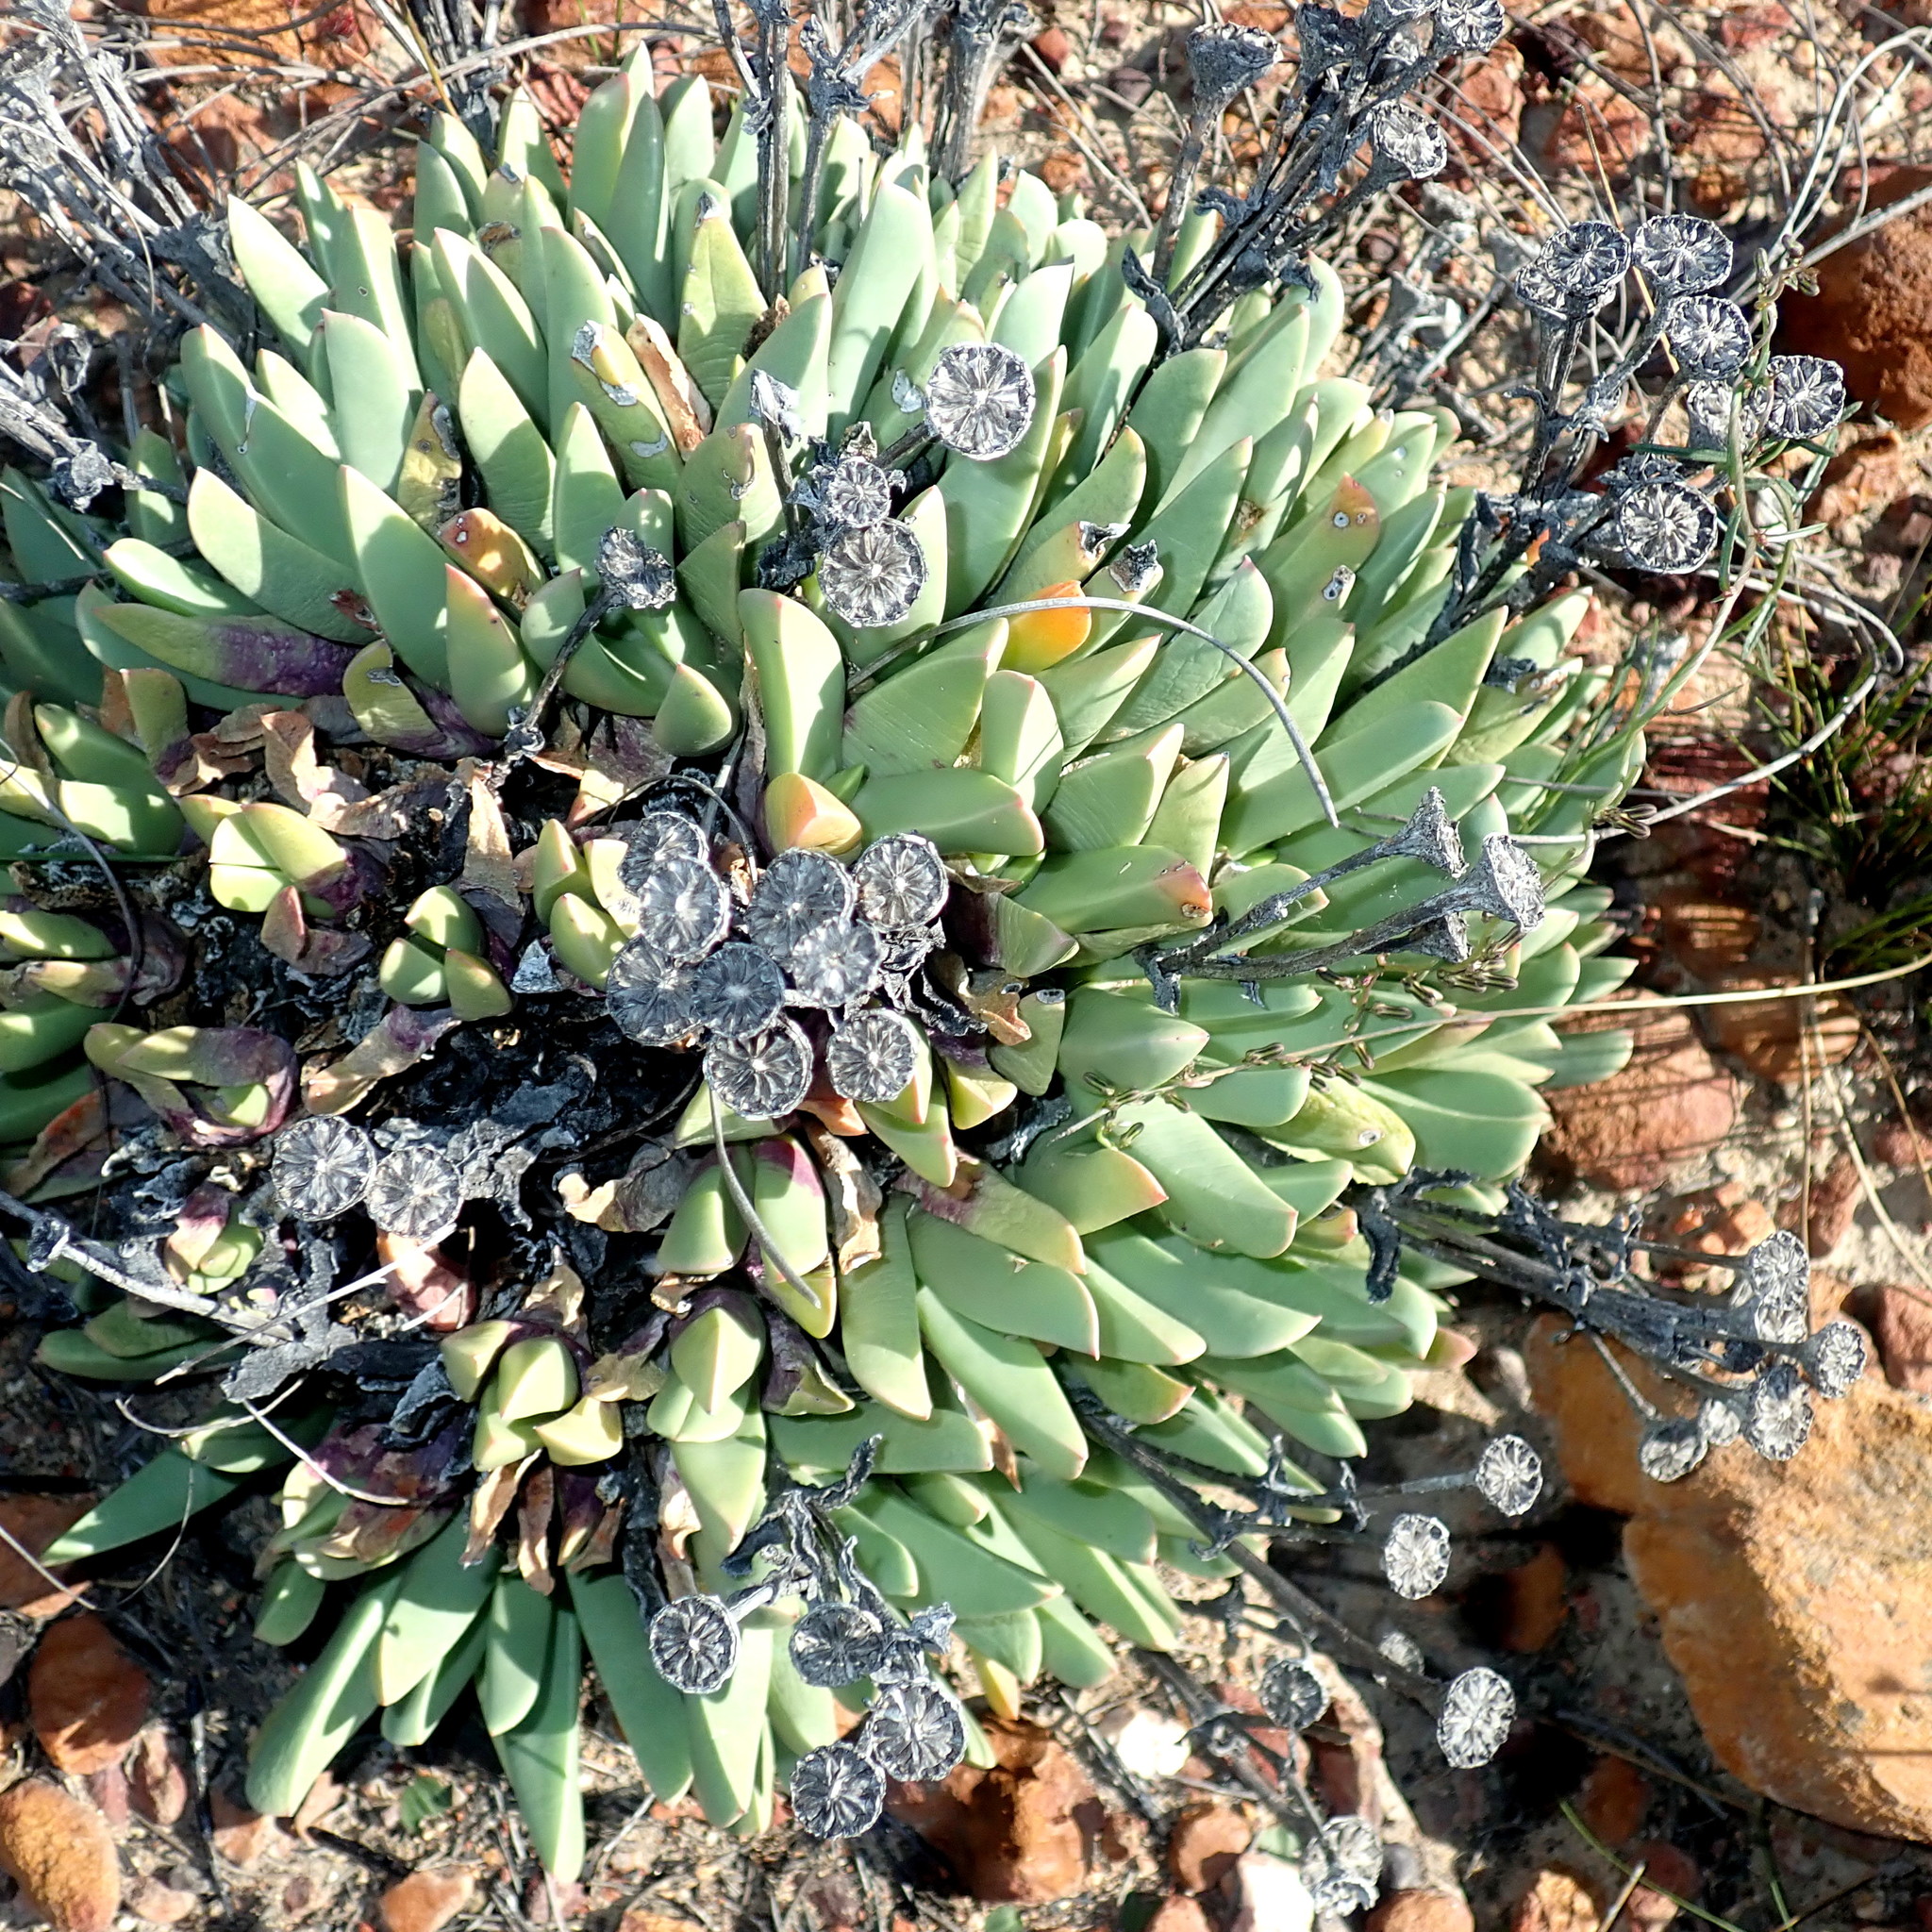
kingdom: Plantae
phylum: Tracheophyta
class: Magnoliopsida
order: Caryophyllales
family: Aizoaceae
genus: Machairophyllum
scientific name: Machairophyllum albidum
